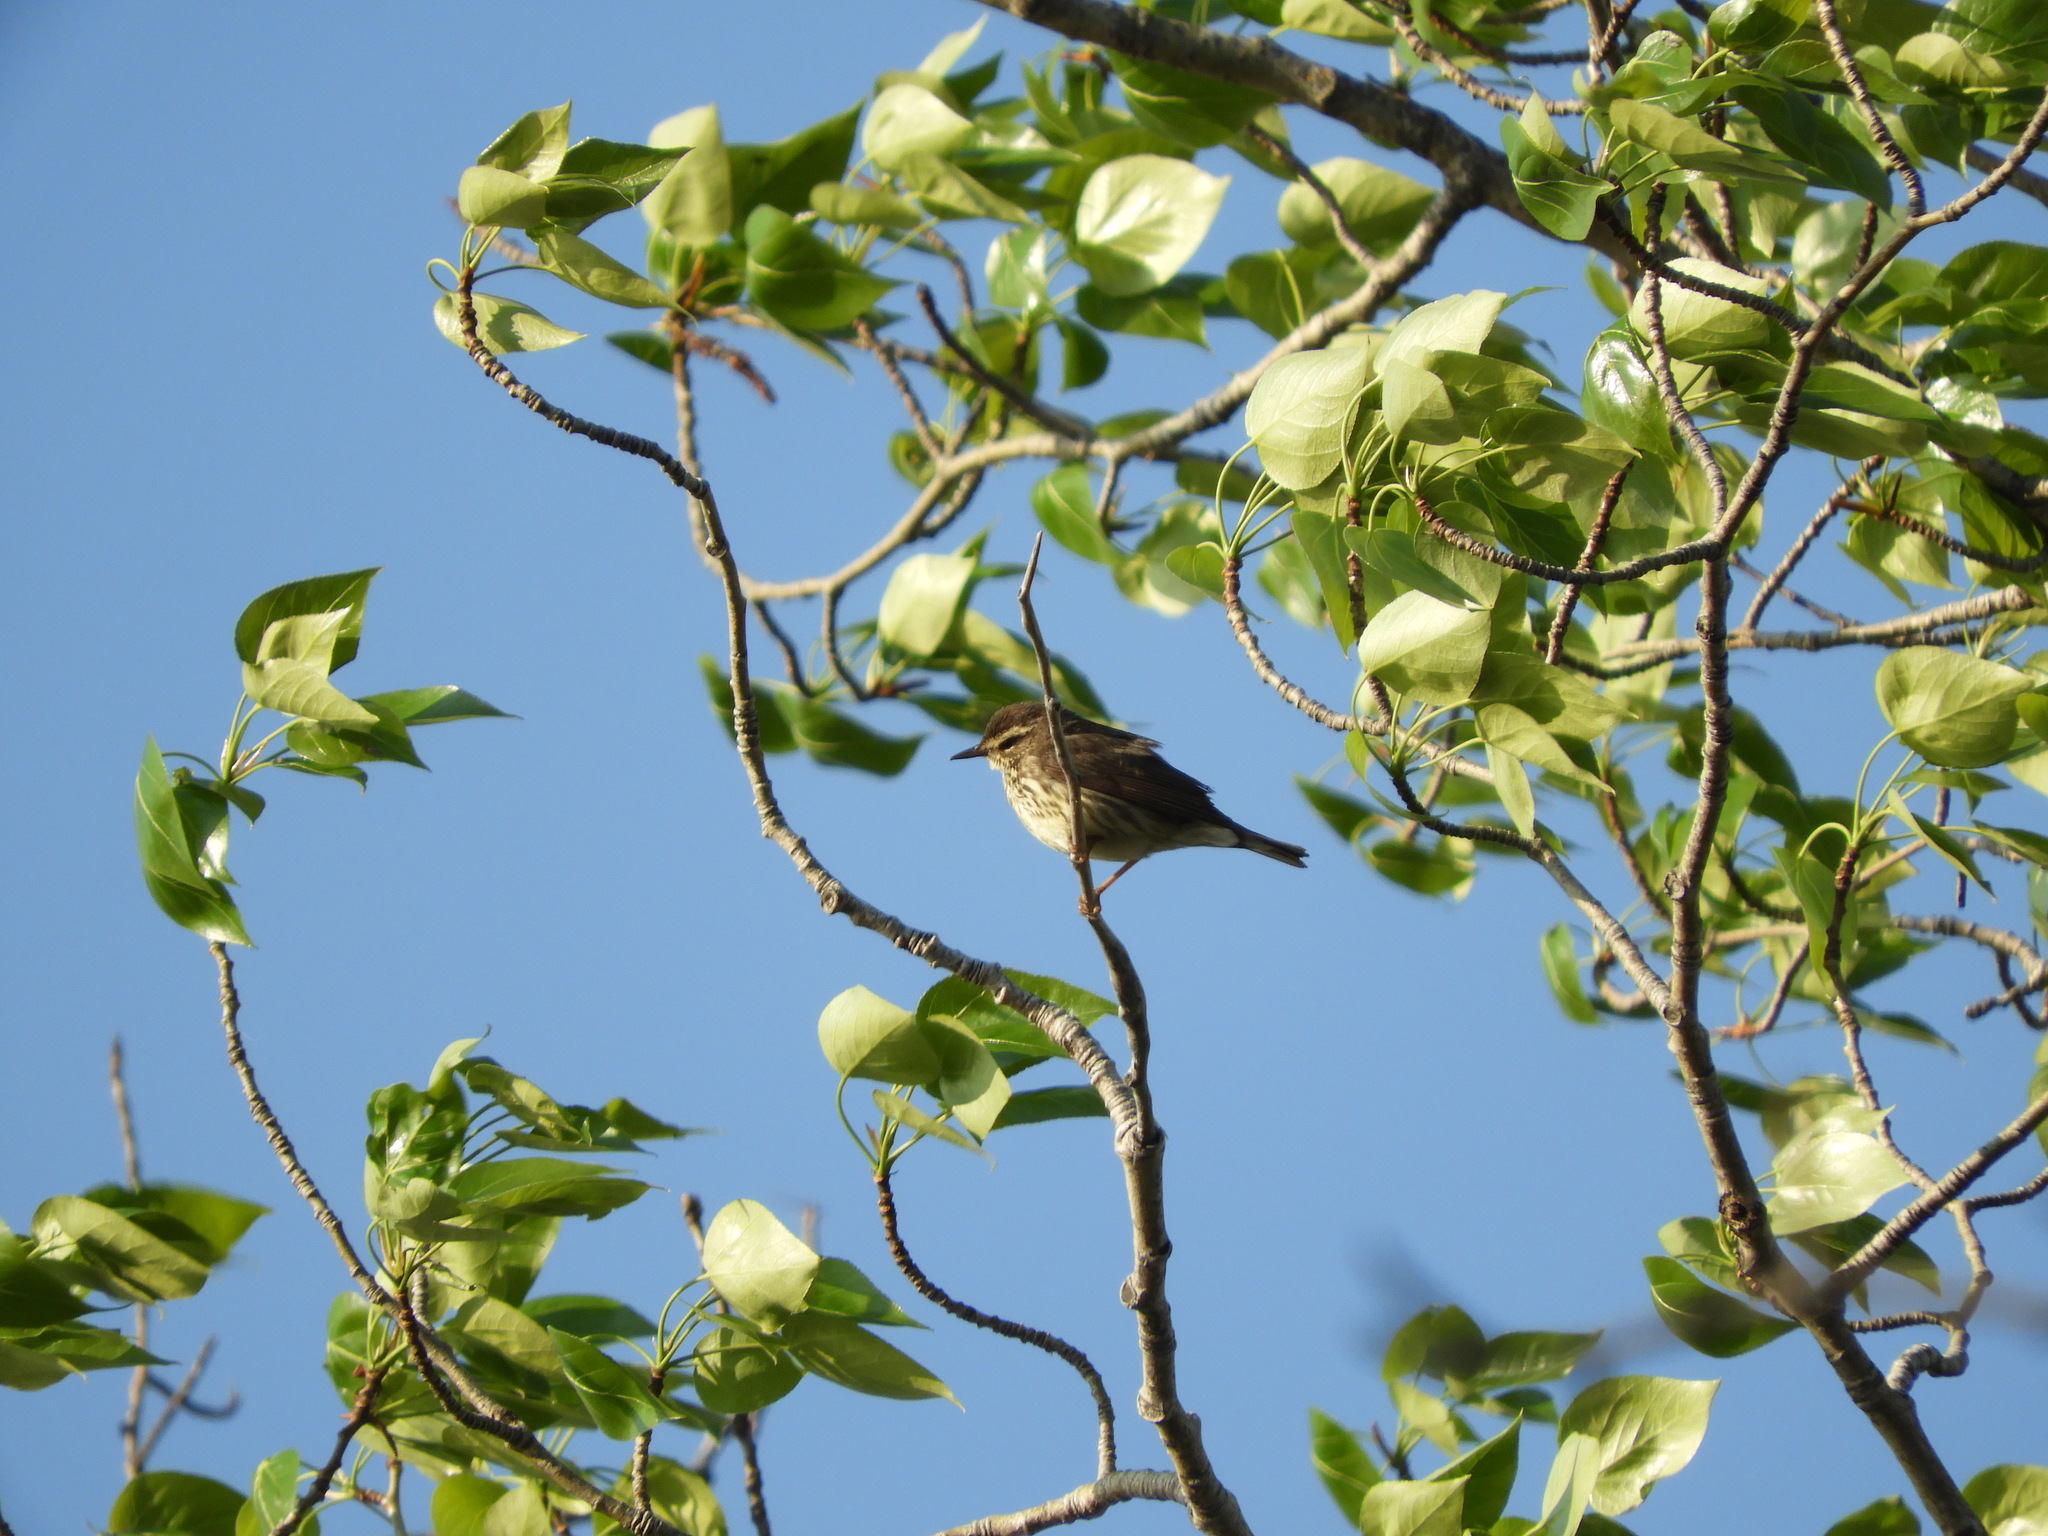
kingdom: Animalia
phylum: Chordata
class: Aves
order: Passeriformes
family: Parulidae
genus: Parkesia
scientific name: Parkesia noveboracensis
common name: Northern waterthrush
